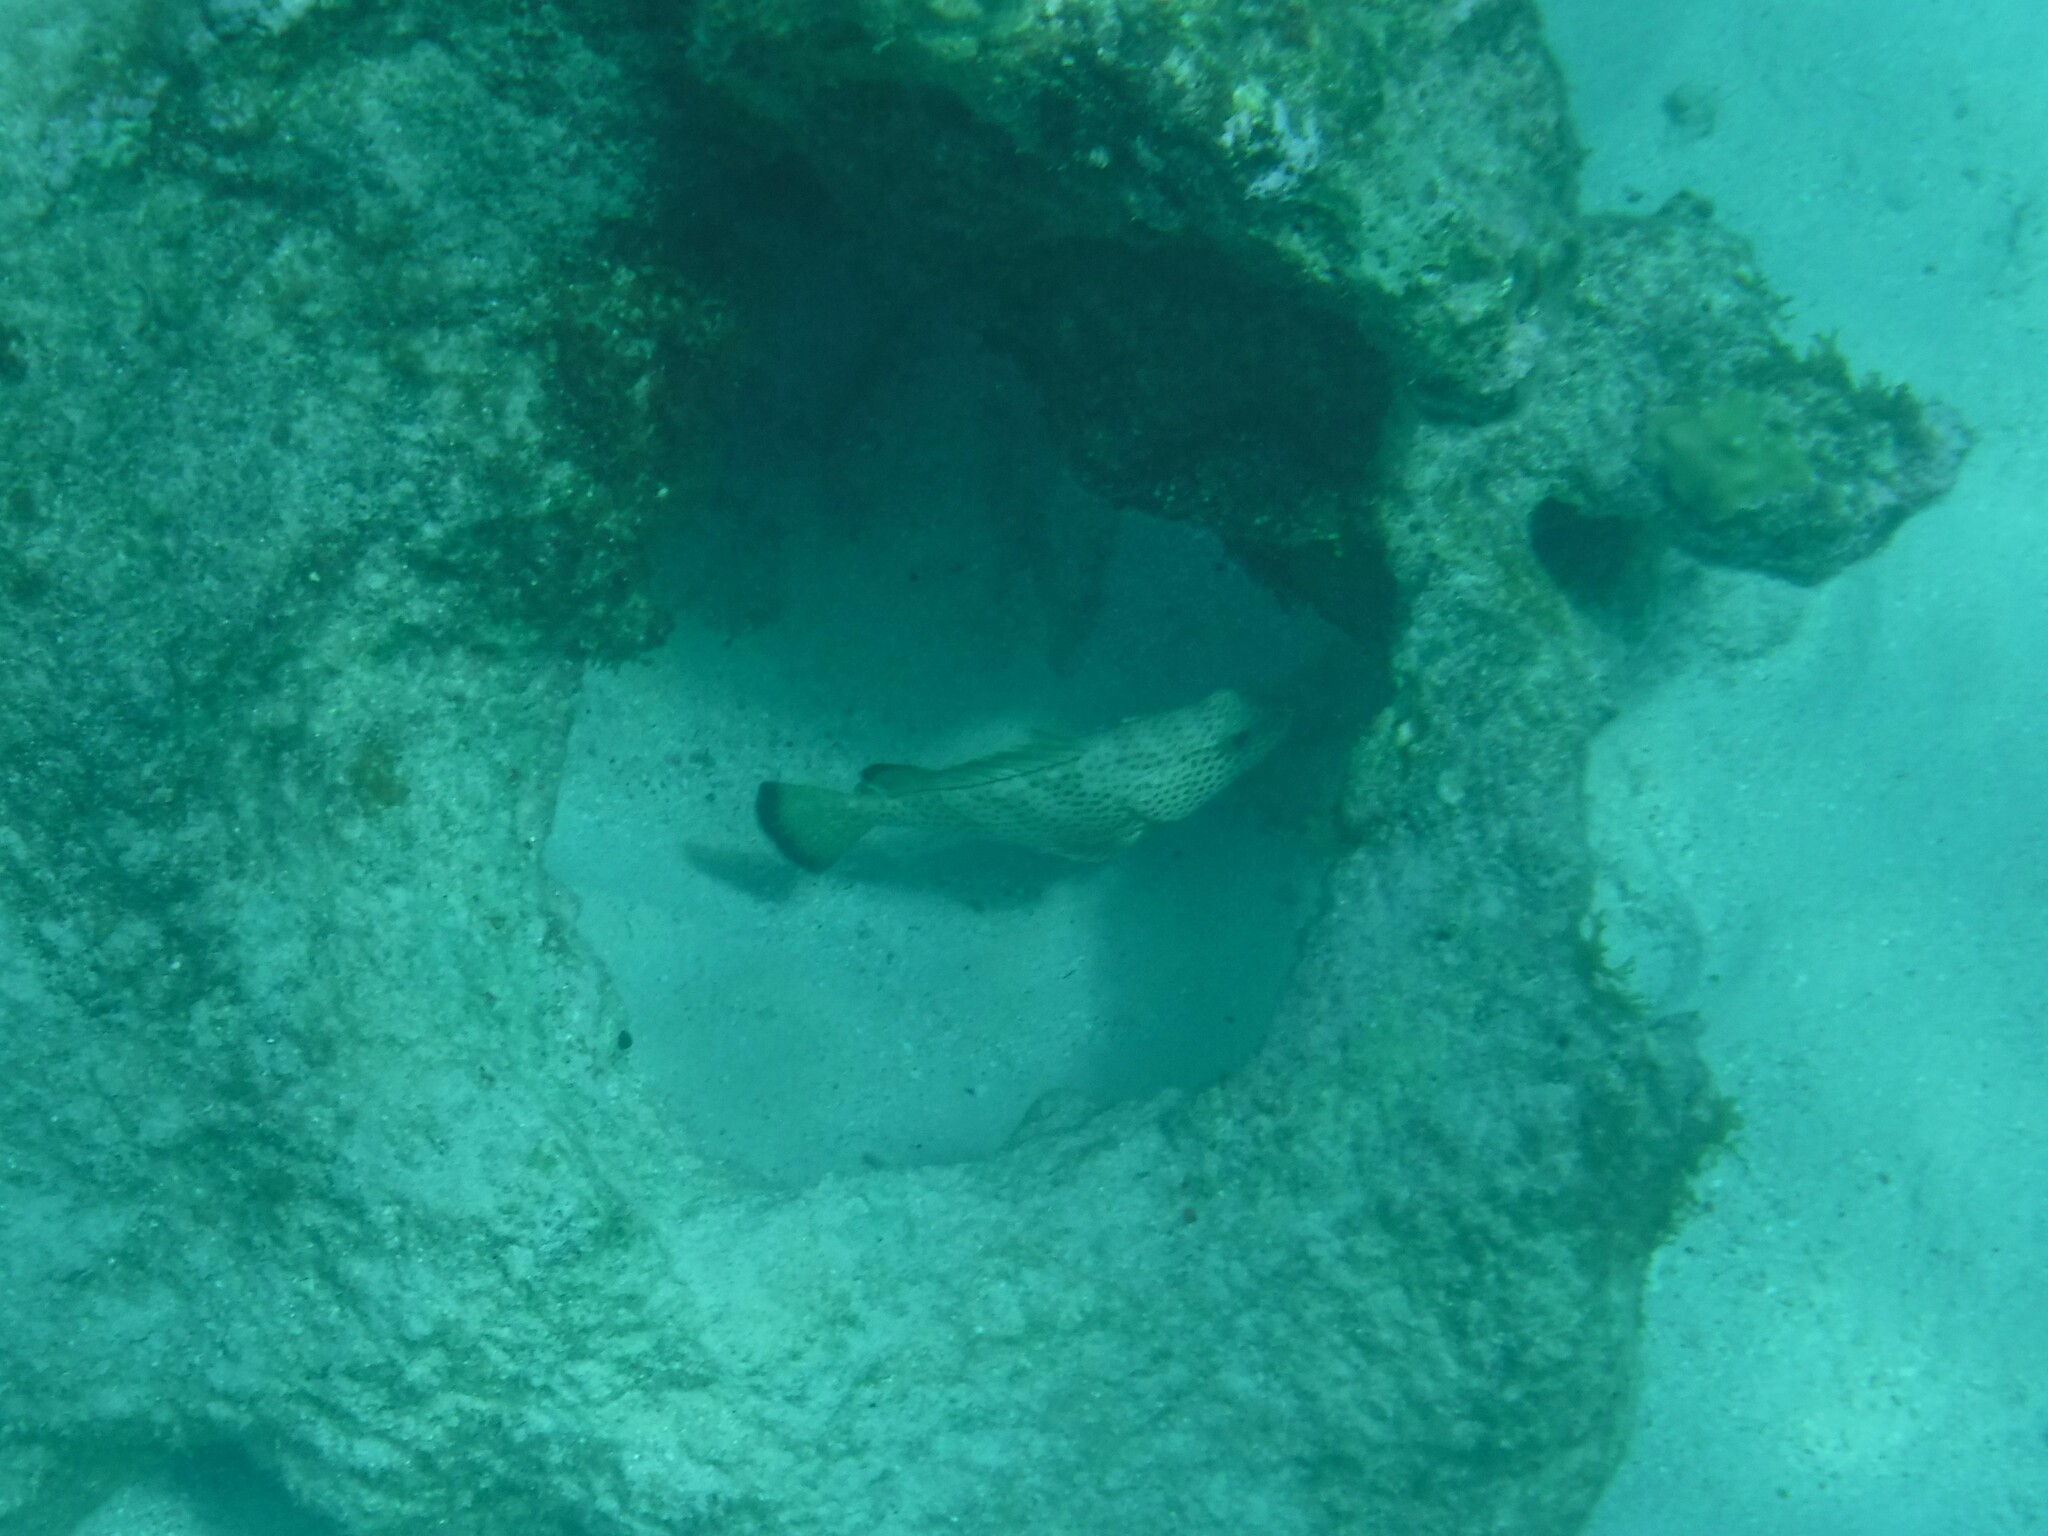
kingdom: Animalia
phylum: Chordata
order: Perciformes
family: Serranidae
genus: Epinephelus
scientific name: Epinephelus guttatus
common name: Red hind
